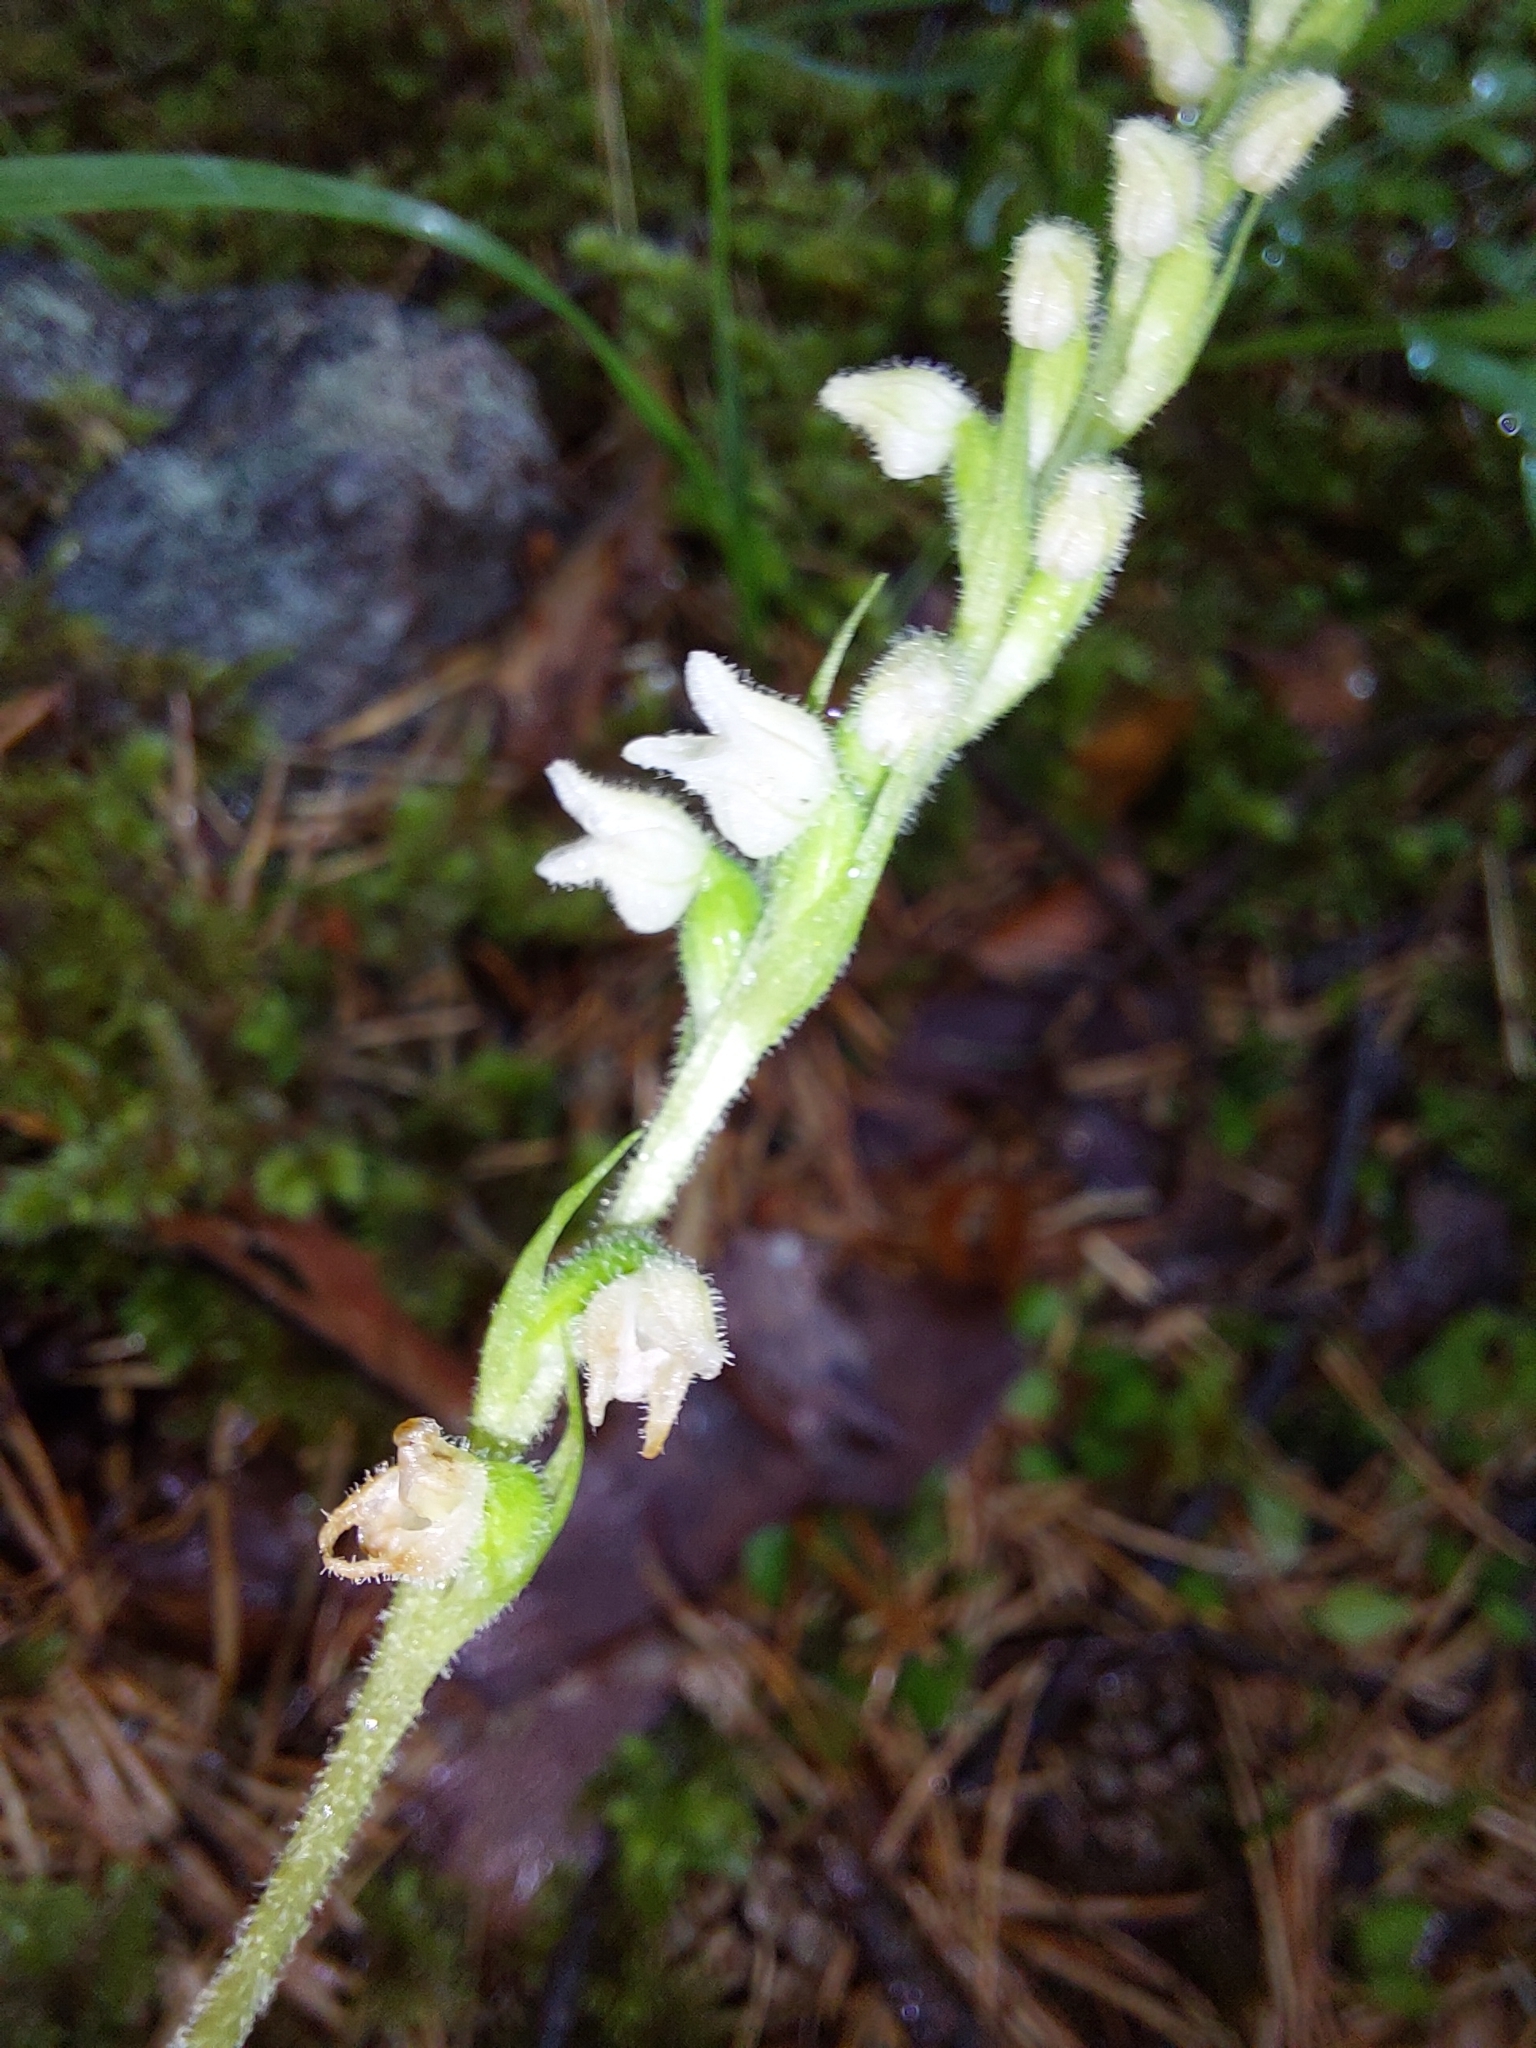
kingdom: Plantae
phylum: Tracheophyta
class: Liliopsida
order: Asparagales
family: Orchidaceae
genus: Goodyera
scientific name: Goodyera repens
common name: Creeping lady's-tresses
